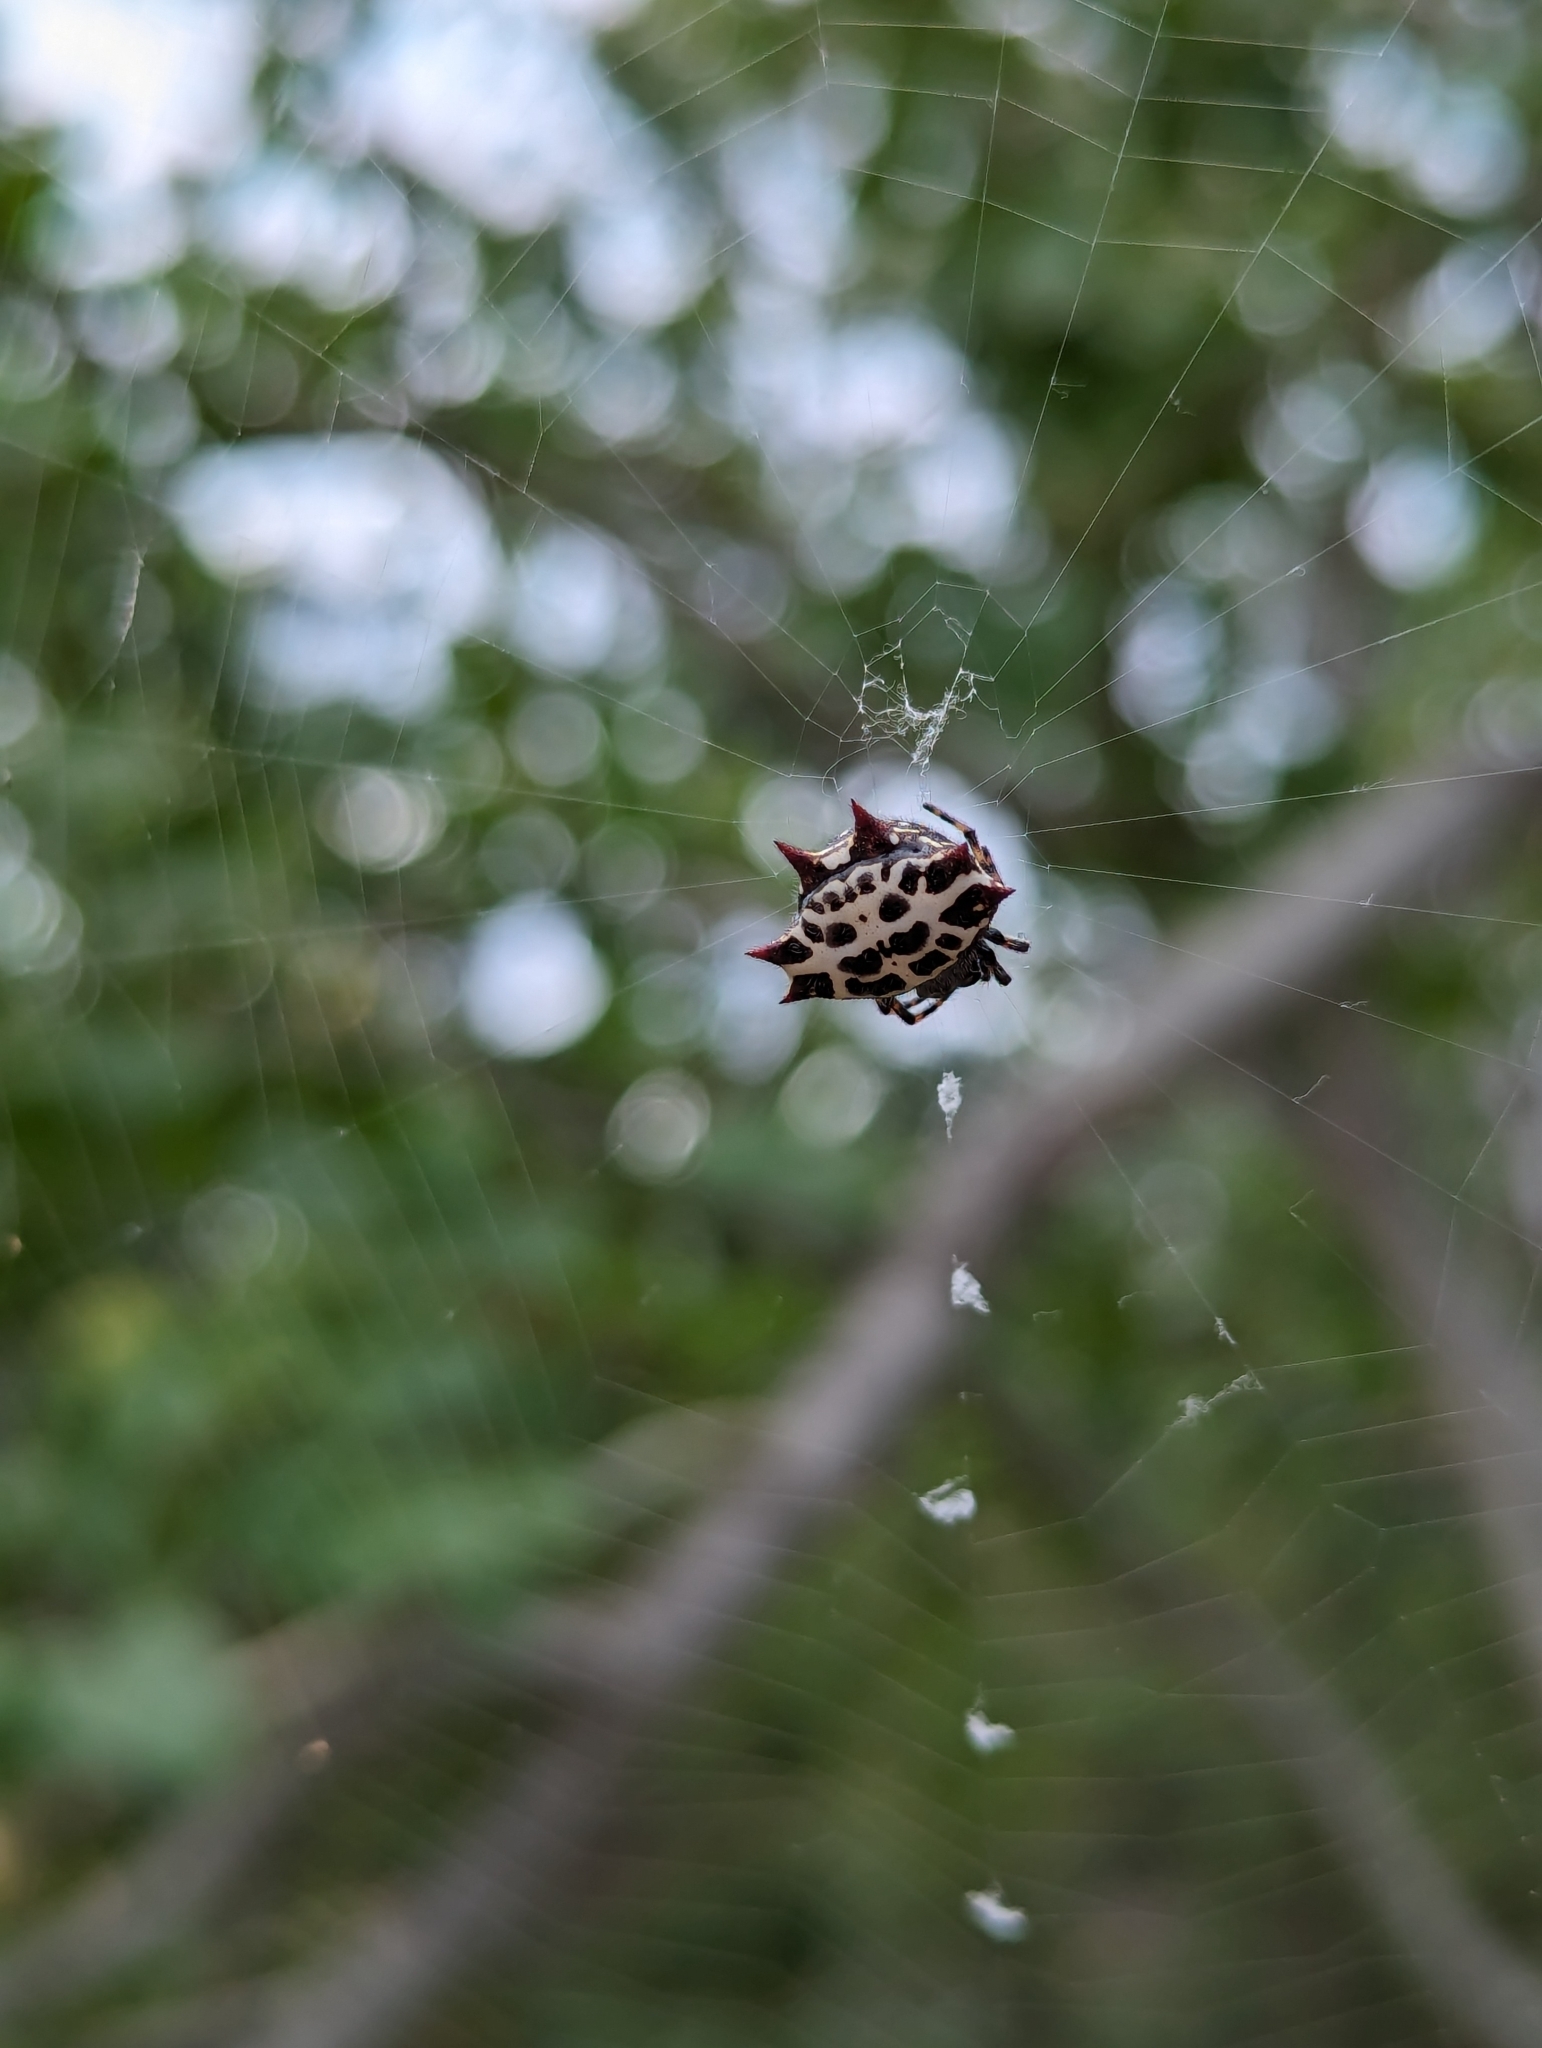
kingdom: Animalia
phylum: Arthropoda
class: Arachnida
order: Araneae
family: Araneidae
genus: Gasteracantha
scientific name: Gasteracantha cancriformis
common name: Orb weavers
